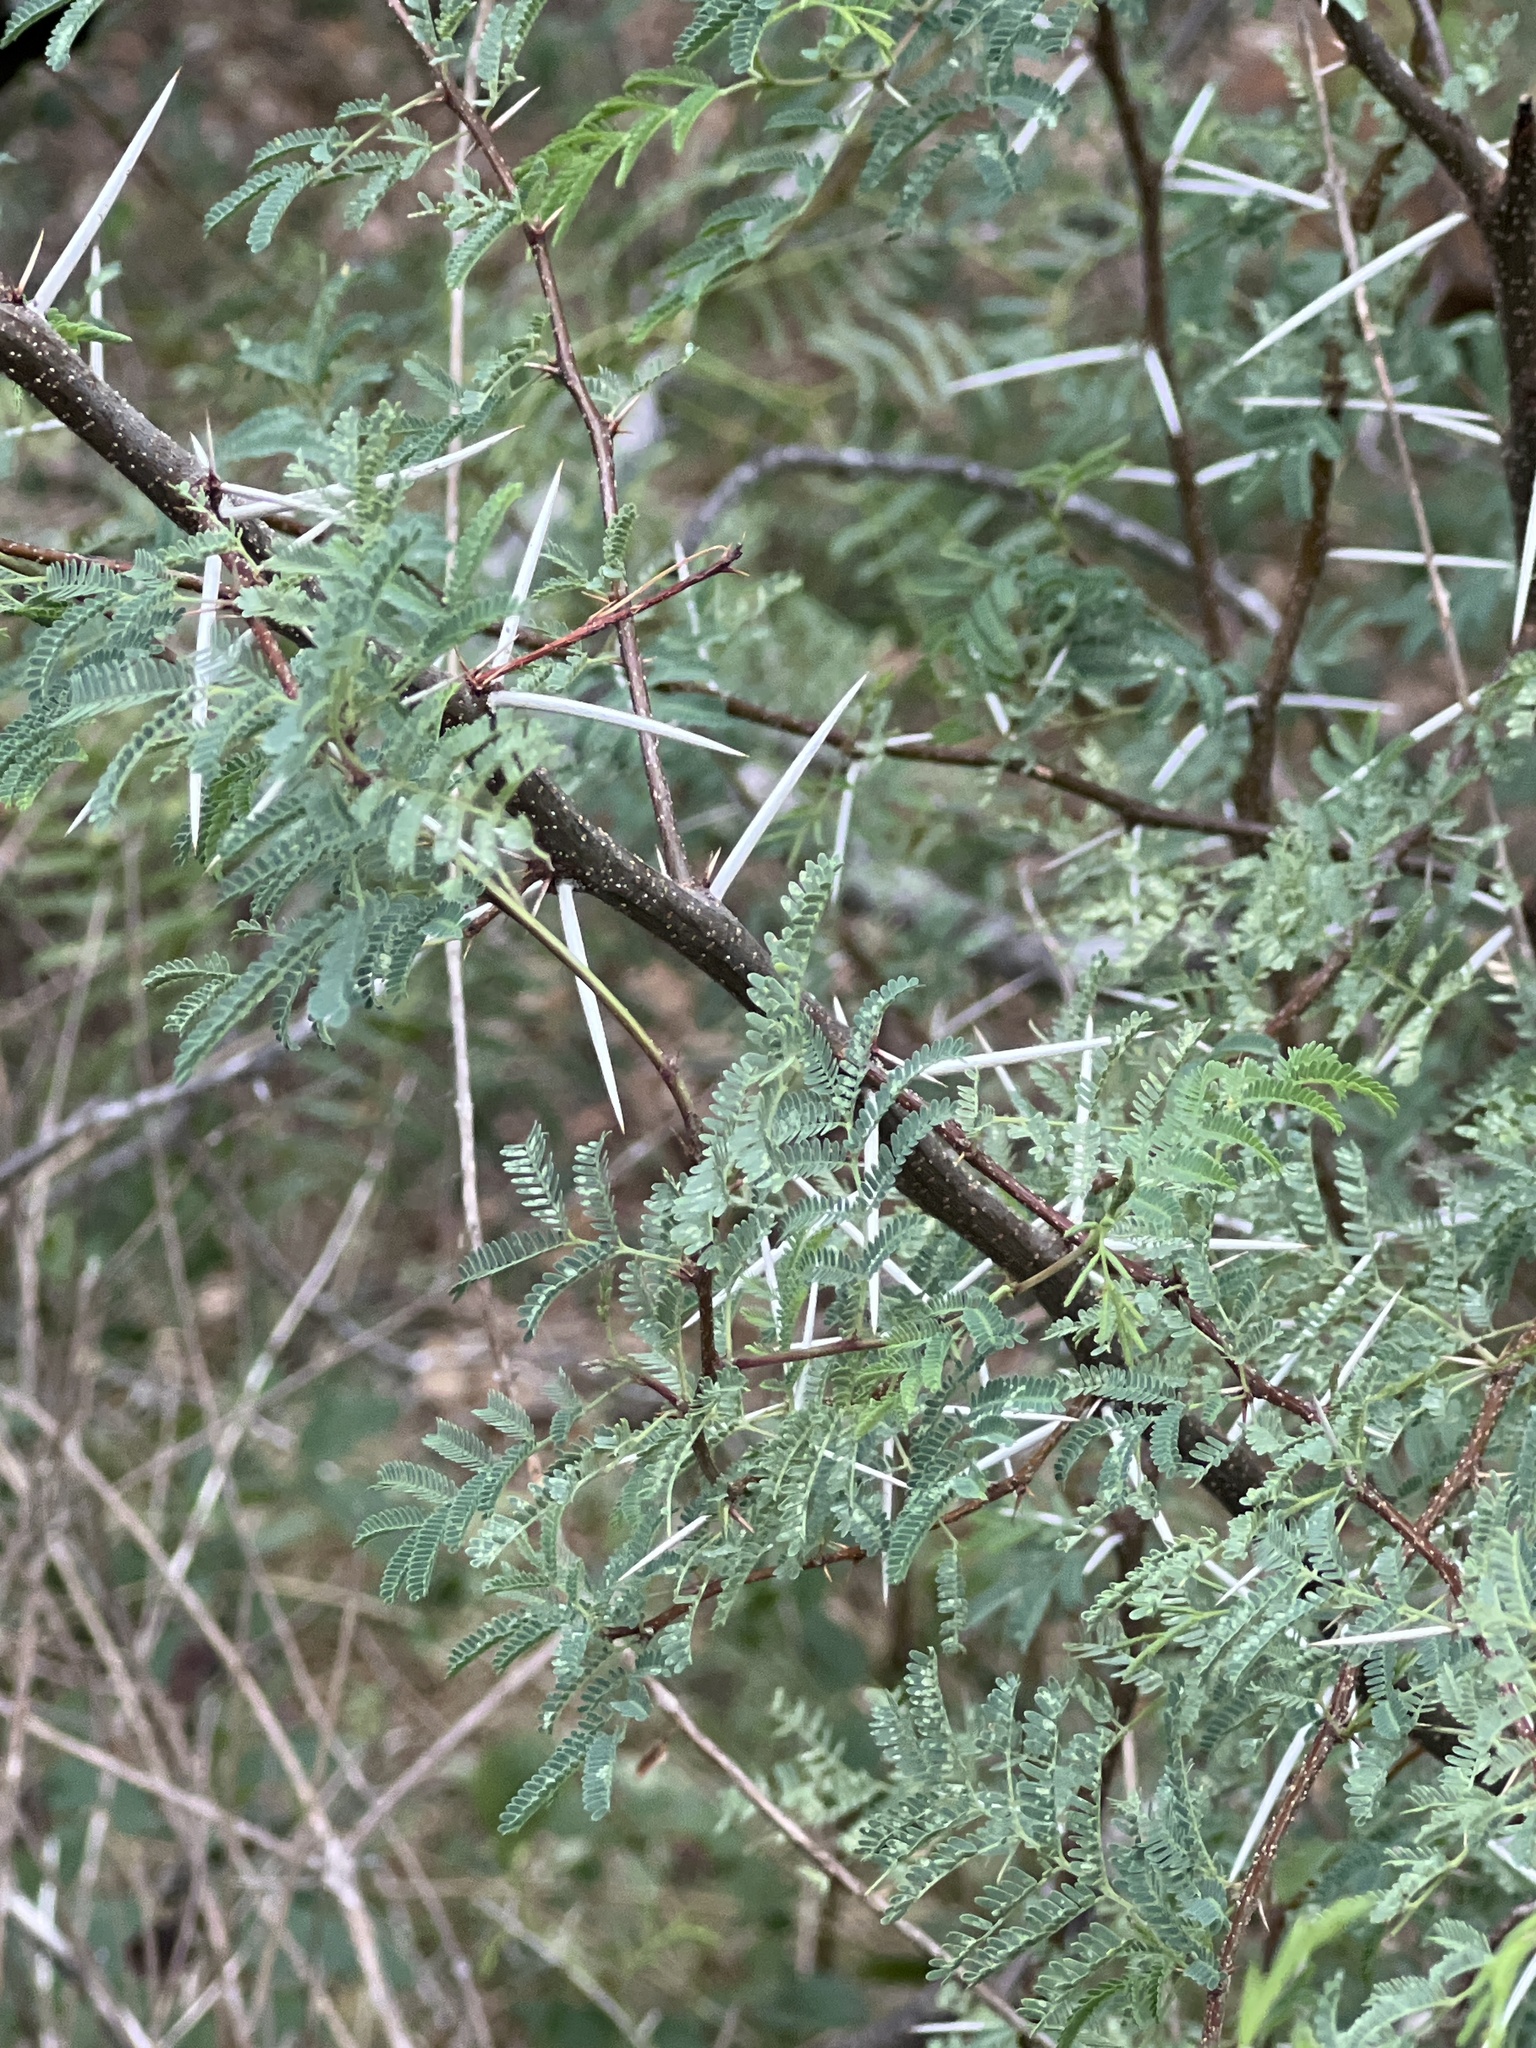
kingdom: Plantae
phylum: Tracheophyta
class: Magnoliopsida
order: Fabales
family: Fabaceae
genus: Vachellia
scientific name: Vachellia farnesiana
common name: Sweet acacia
